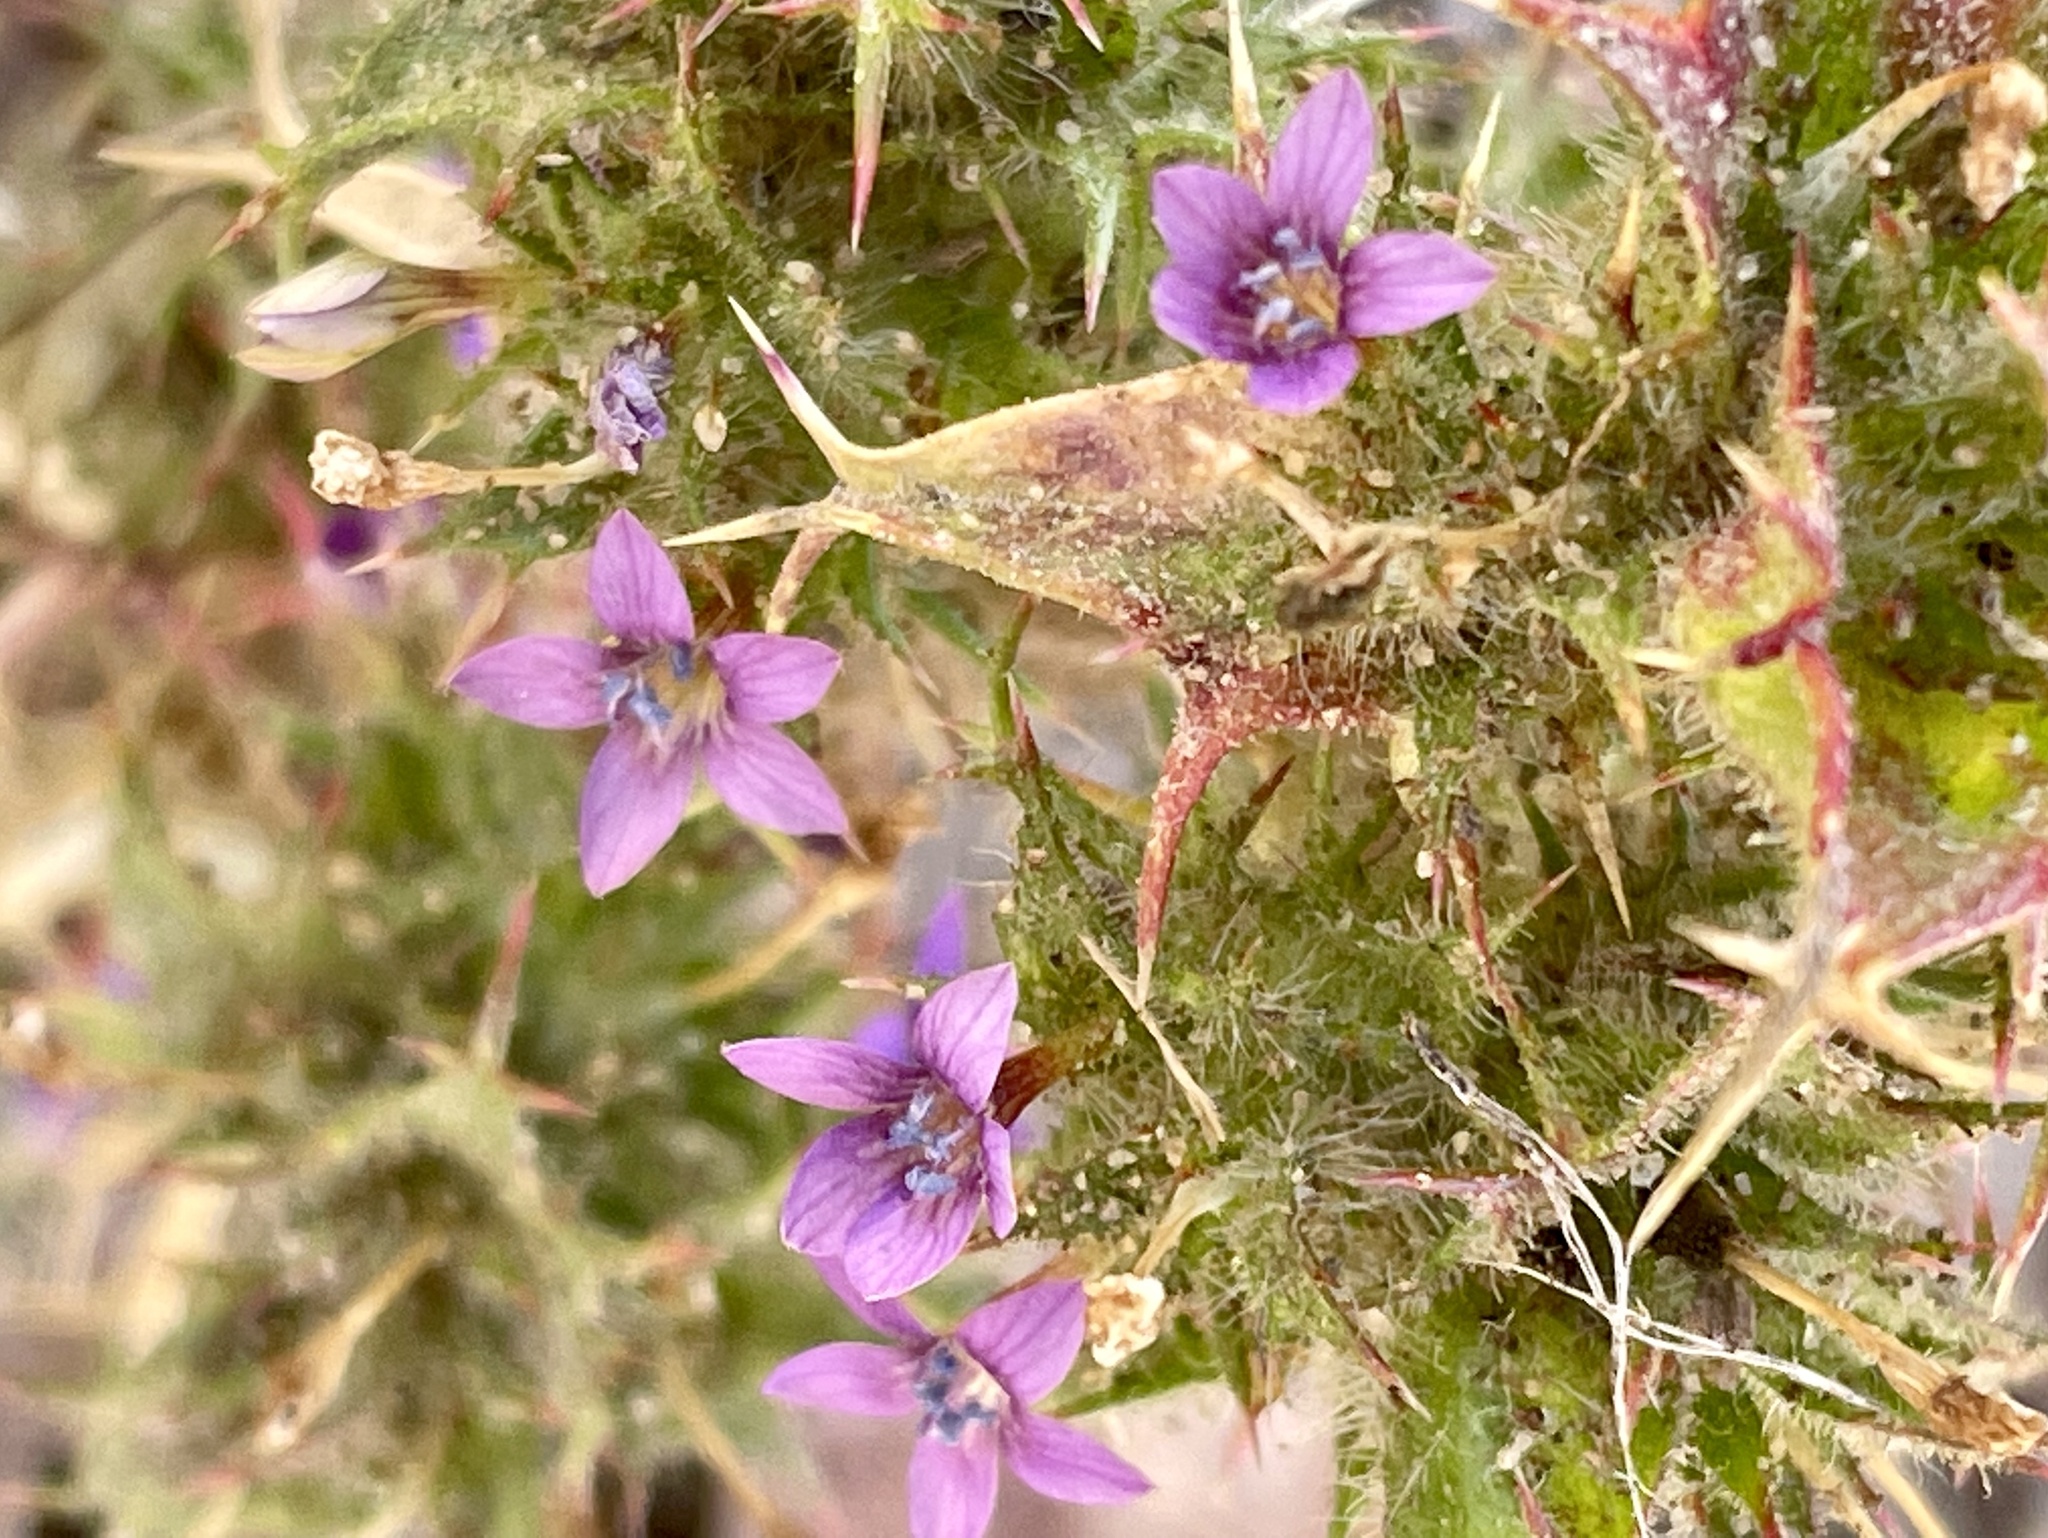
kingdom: Plantae
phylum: Tracheophyta
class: Magnoliopsida
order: Ericales
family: Polemoniaceae
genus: Navarretia
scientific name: Navarretia atractyloides
